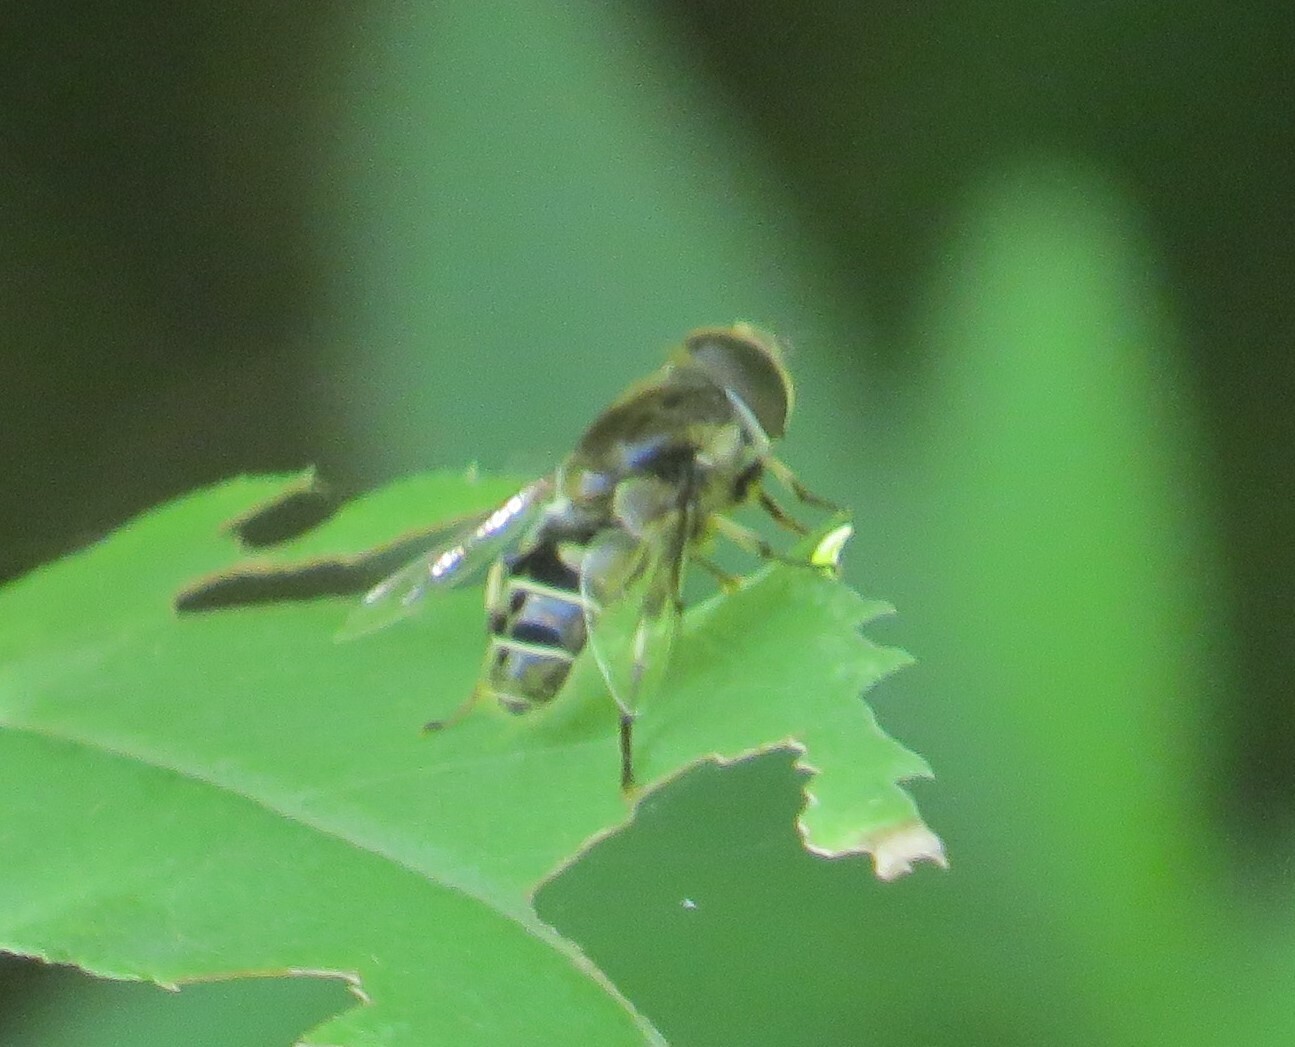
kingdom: Animalia
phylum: Arthropoda
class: Insecta
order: Diptera
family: Syrphidae
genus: Eristalis
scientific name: Eristalis dimidiata
